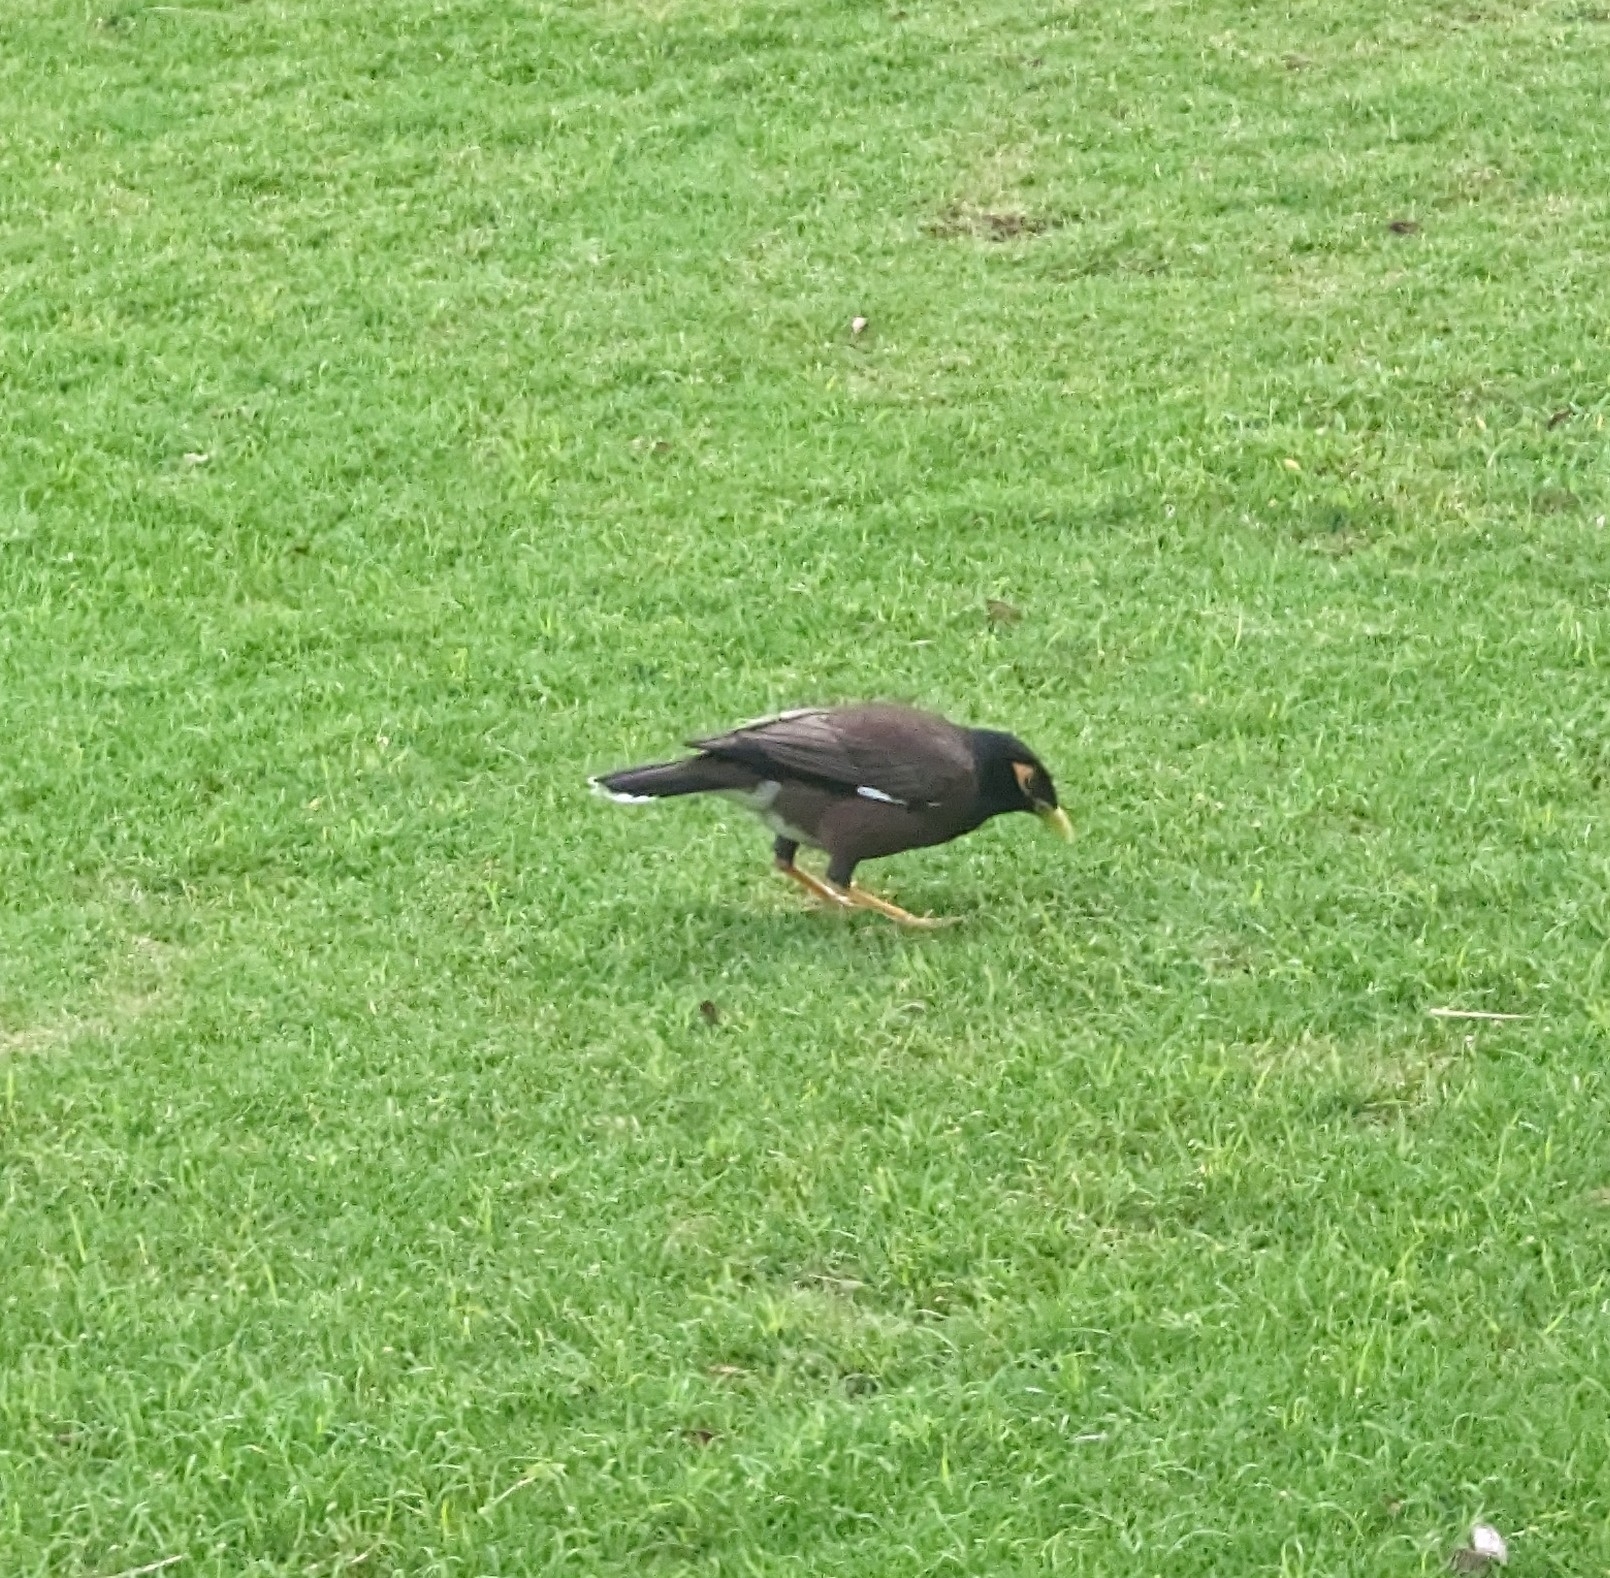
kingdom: Animalia
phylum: Chordata
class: Aves
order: Passeriformes
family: Sturnidae
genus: Acridotheres
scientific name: Acridotheres tristis
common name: Common myna
